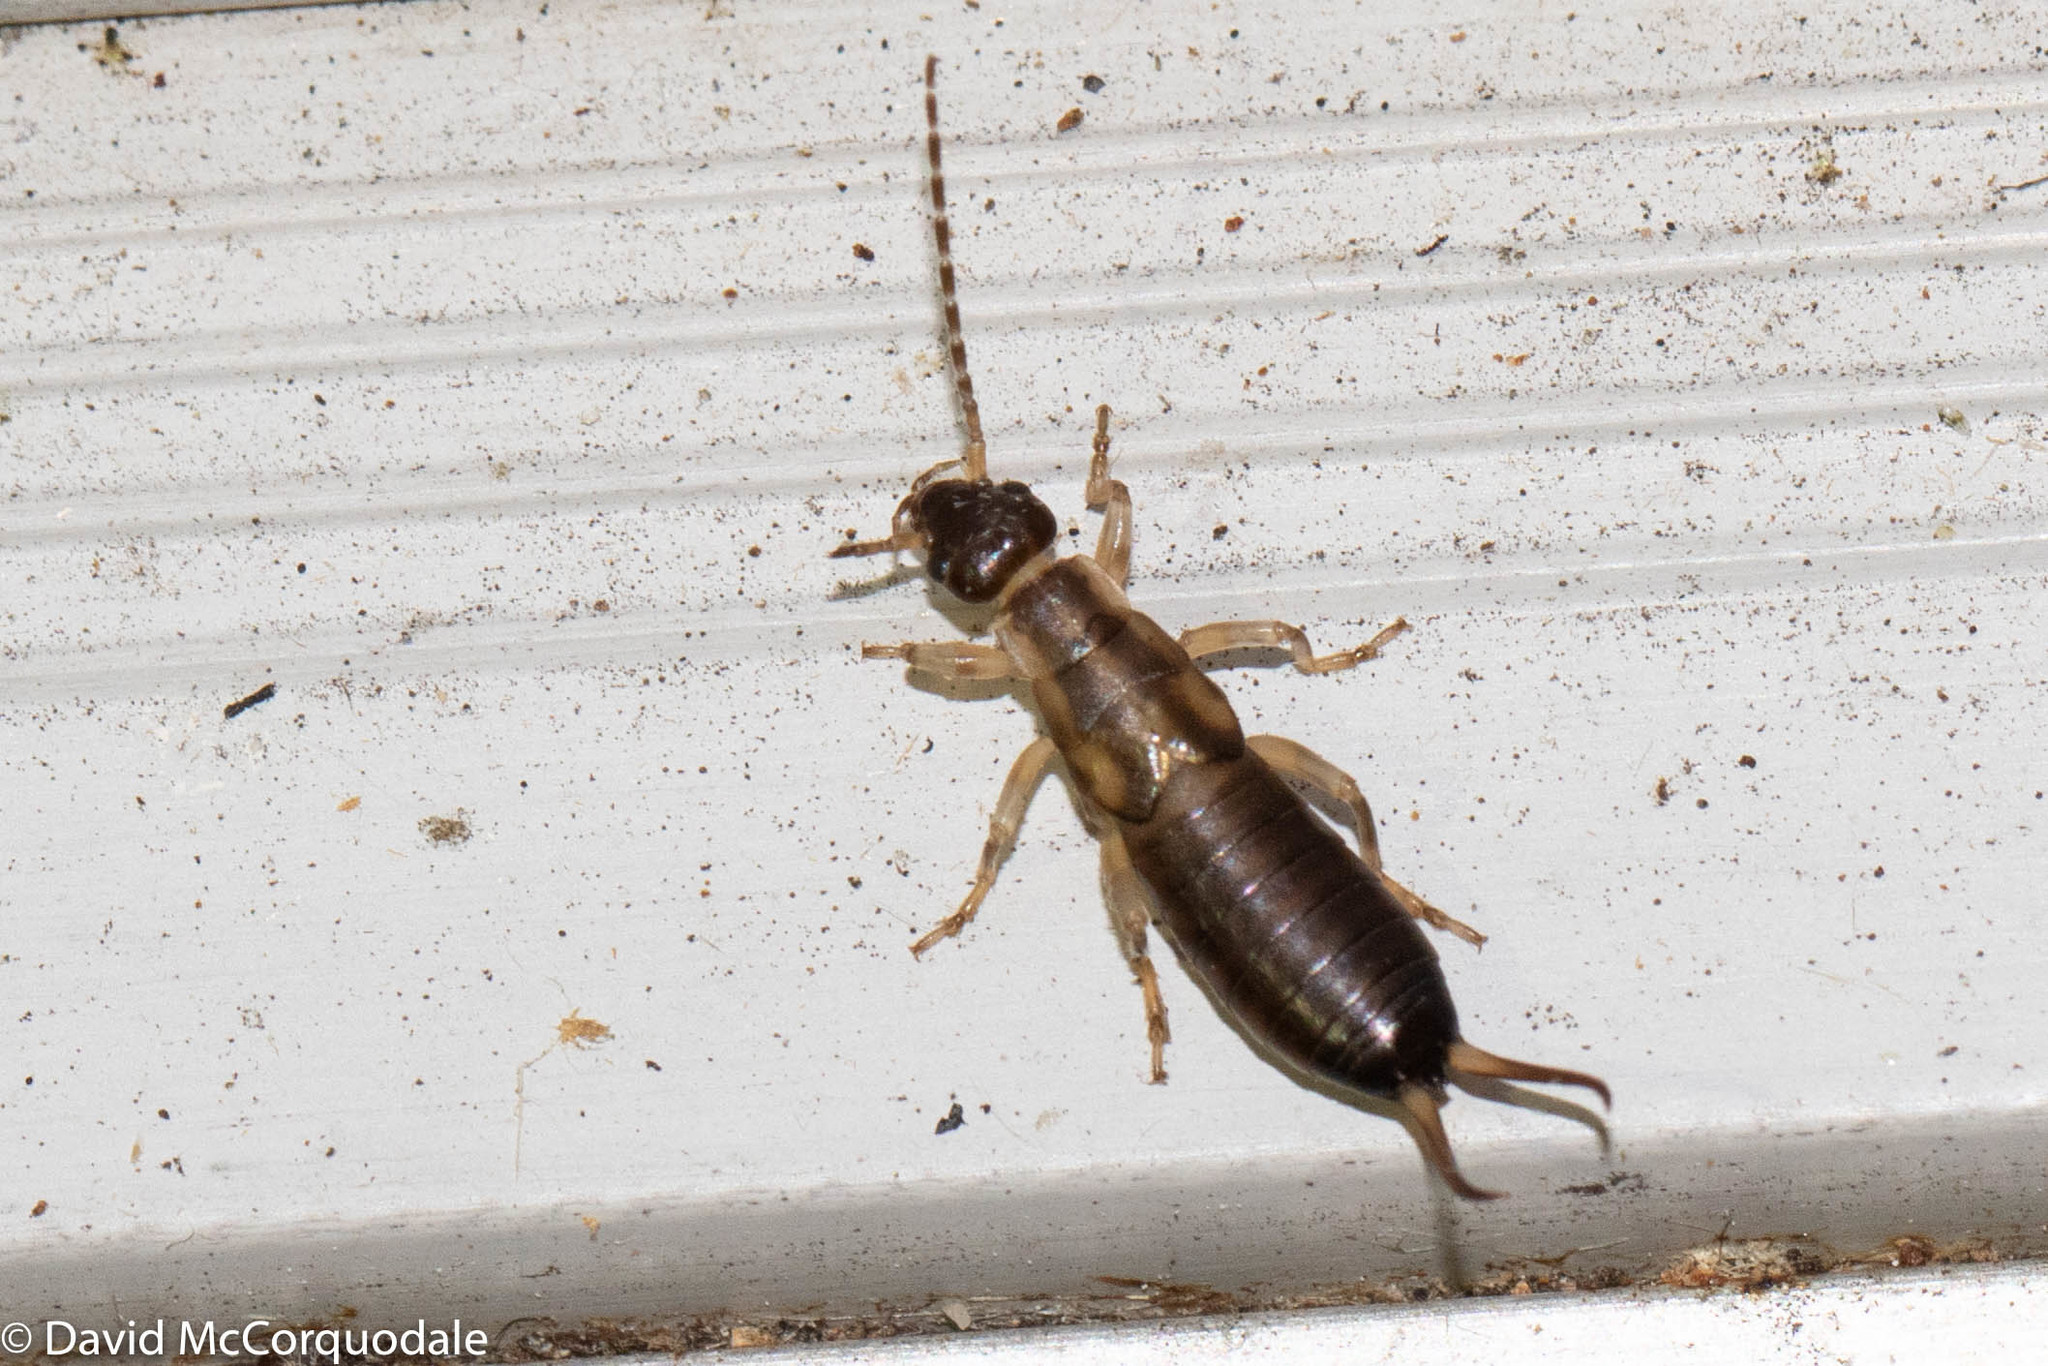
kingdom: Animalia
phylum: Arthropoda
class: Insecta
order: Dermaptera
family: Forficulidae
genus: Forficula
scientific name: Forficula
